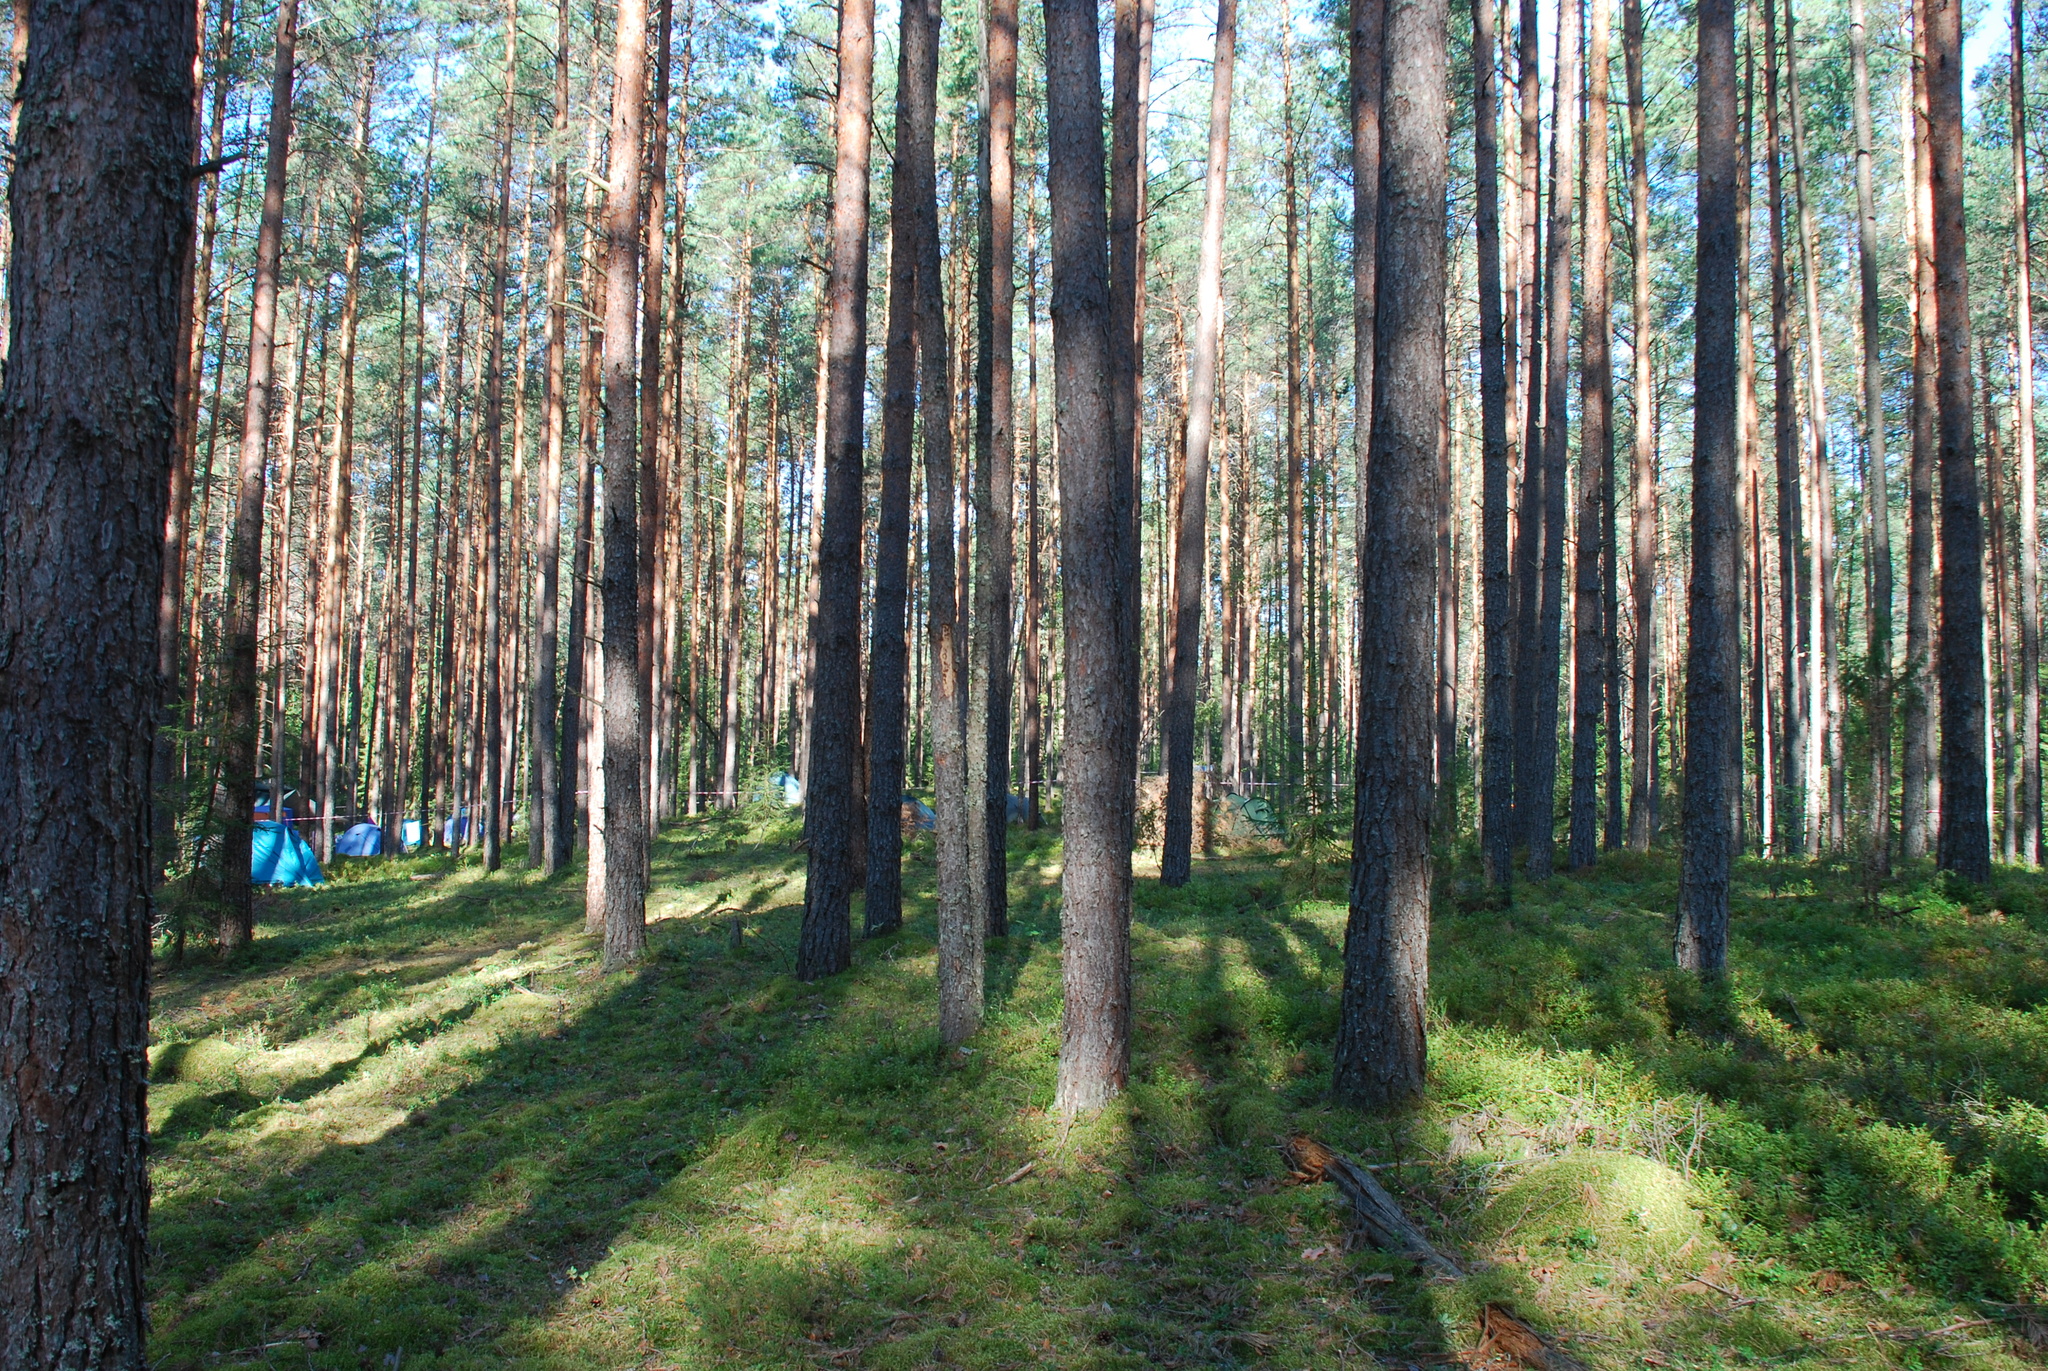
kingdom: Plantae
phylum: Tracheophyta
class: Pinopsida
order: Pinales
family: Pinaceae
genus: Pinus
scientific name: Pinus sylvestris
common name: Scots pine
